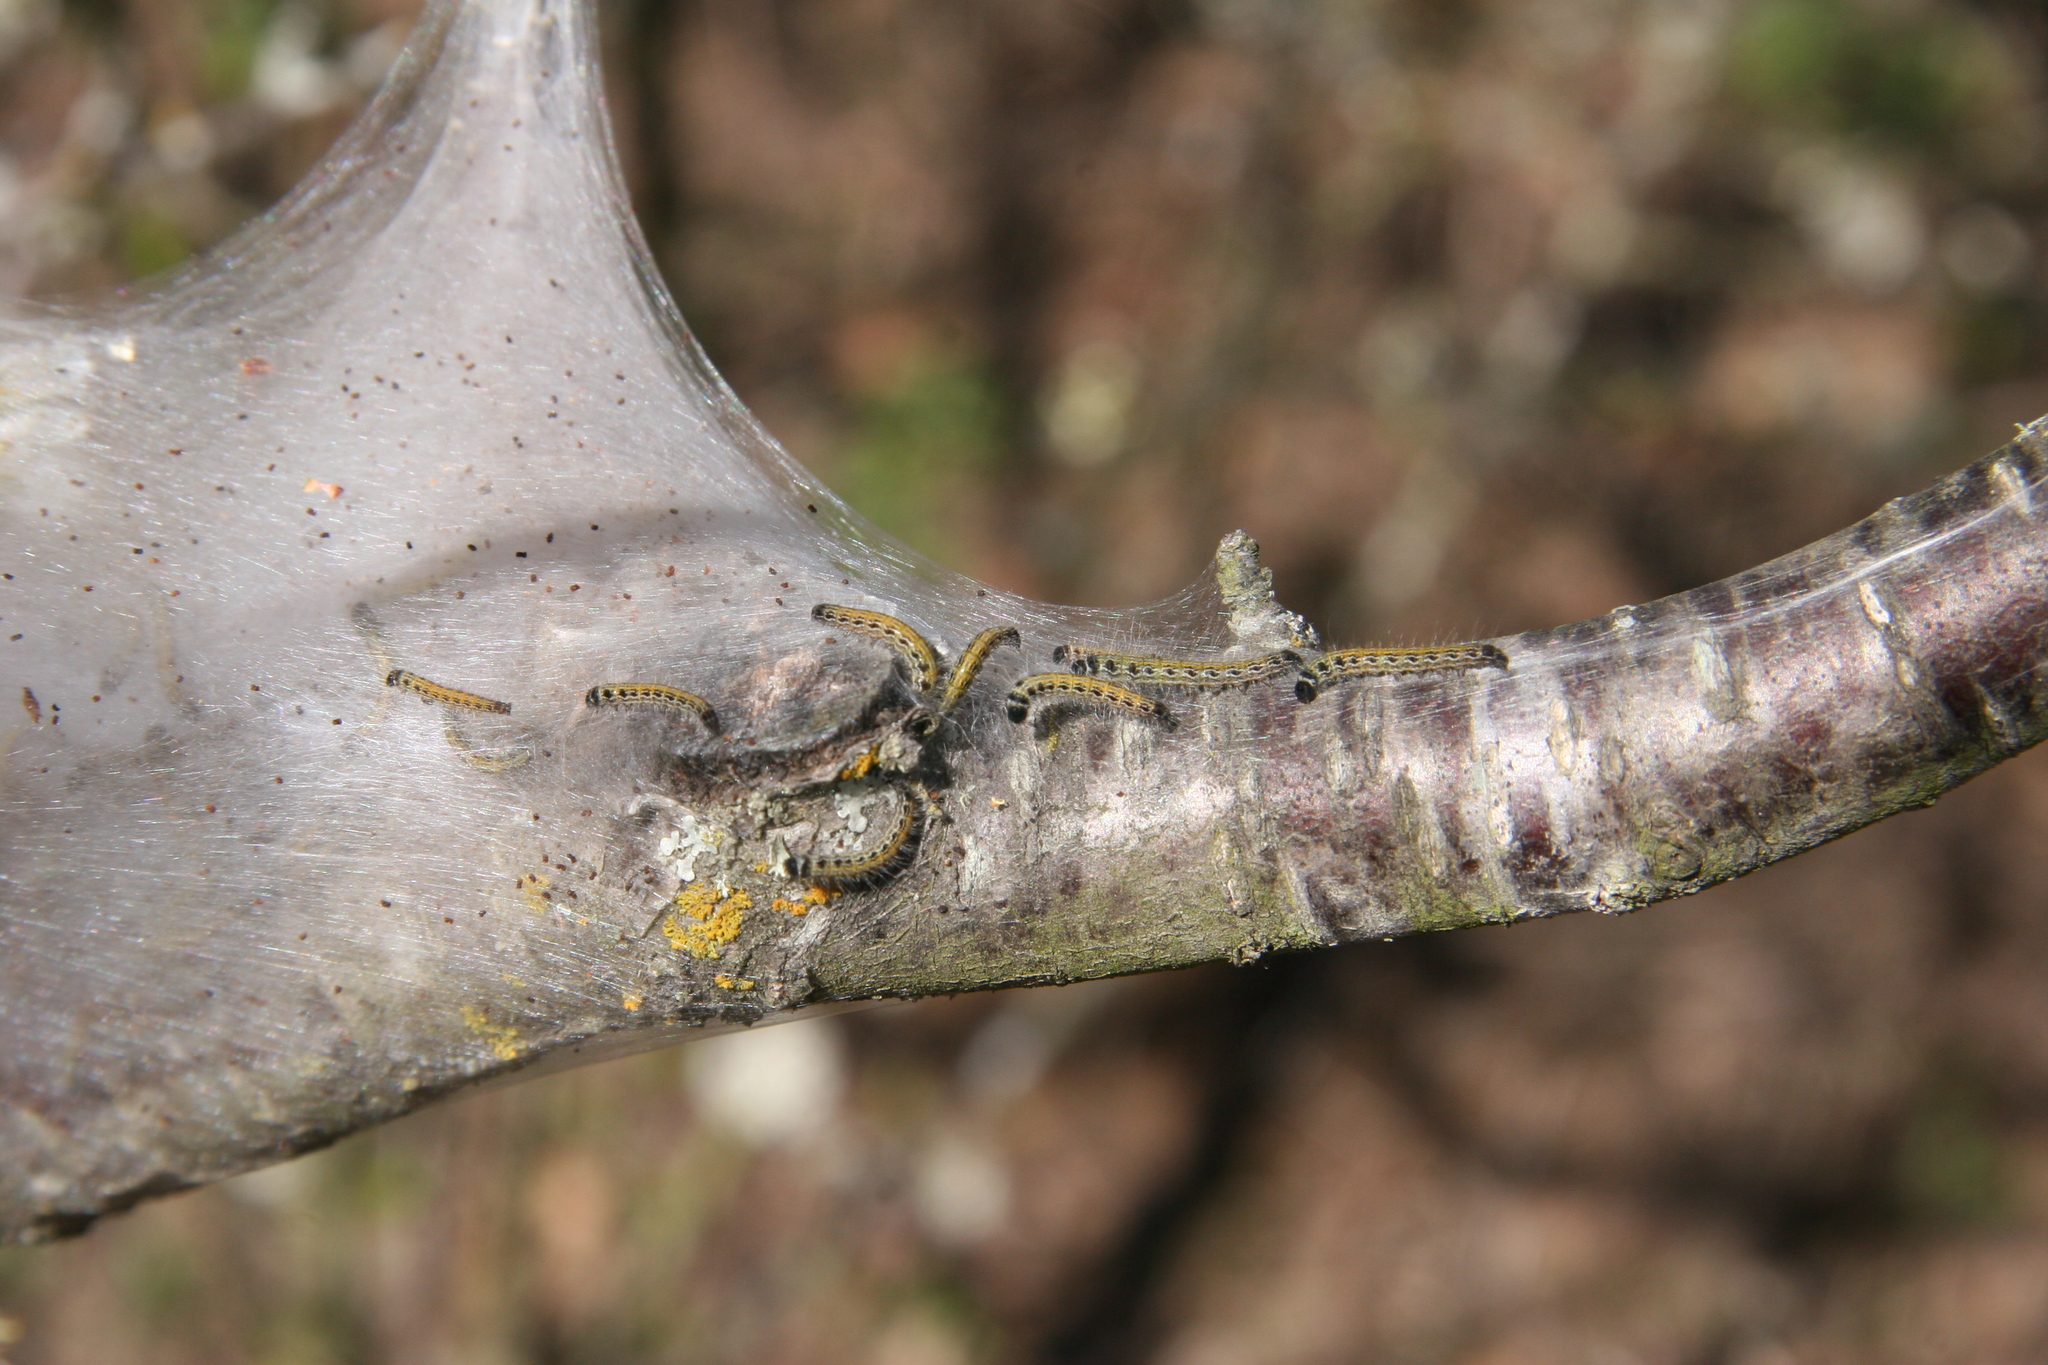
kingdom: Animalia
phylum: Arthropoda
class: Insecta
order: Lepidoptera
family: Lasiocampidae
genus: Malacosoma
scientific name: Malacosoma americana
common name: Eastern tent caterpillar moth
